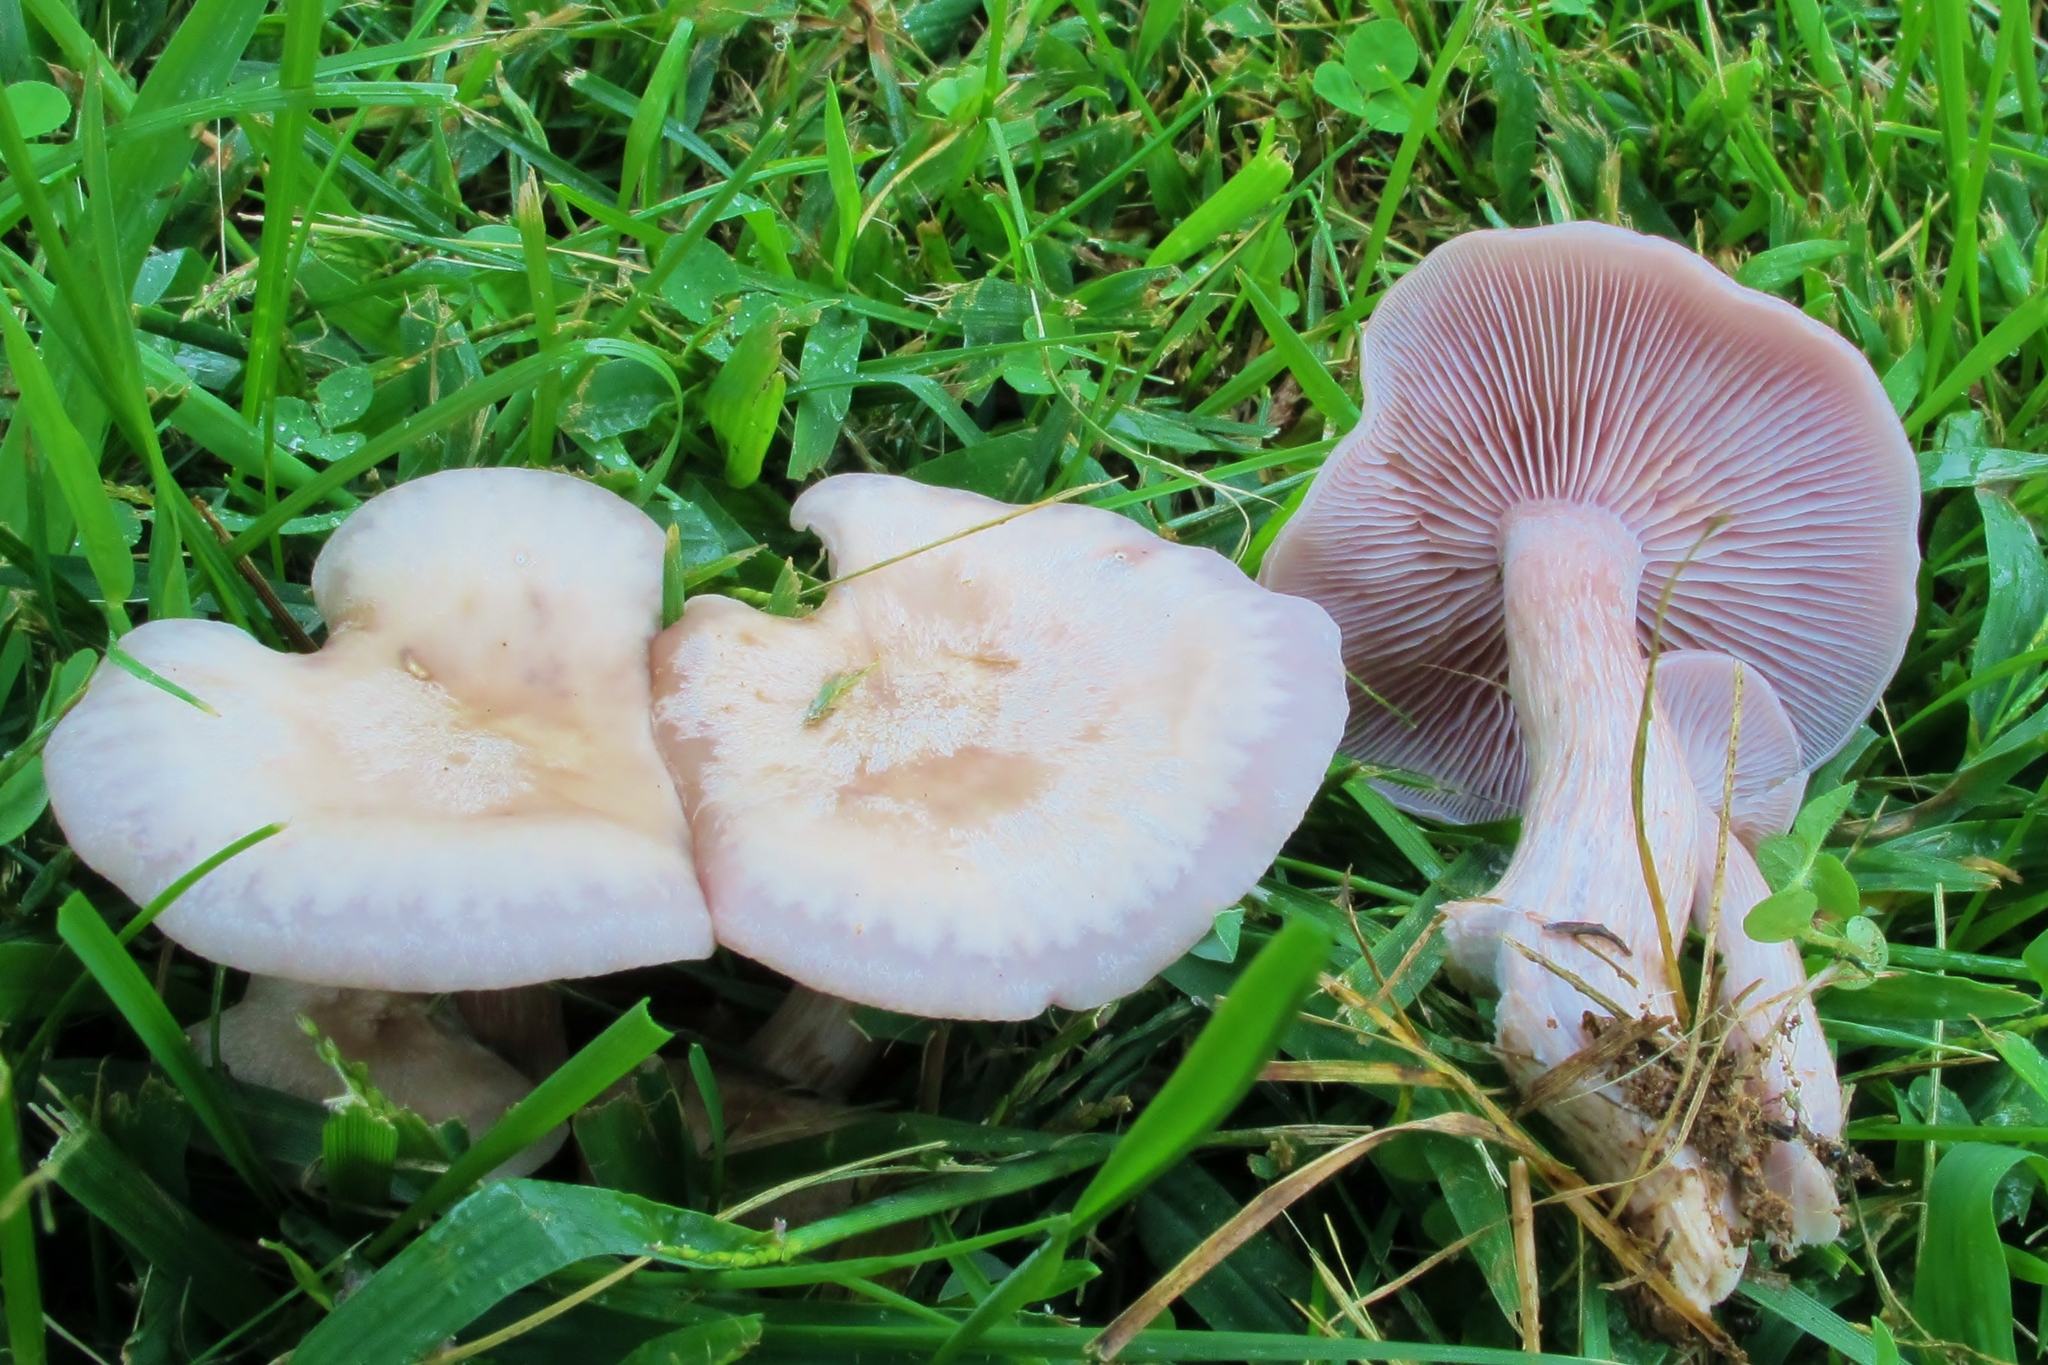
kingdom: Fungi
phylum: Basidiomycota
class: Agaricomycetes
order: Agaricales
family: Tricholomataceae
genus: Lepista
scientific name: Lepista tarda
